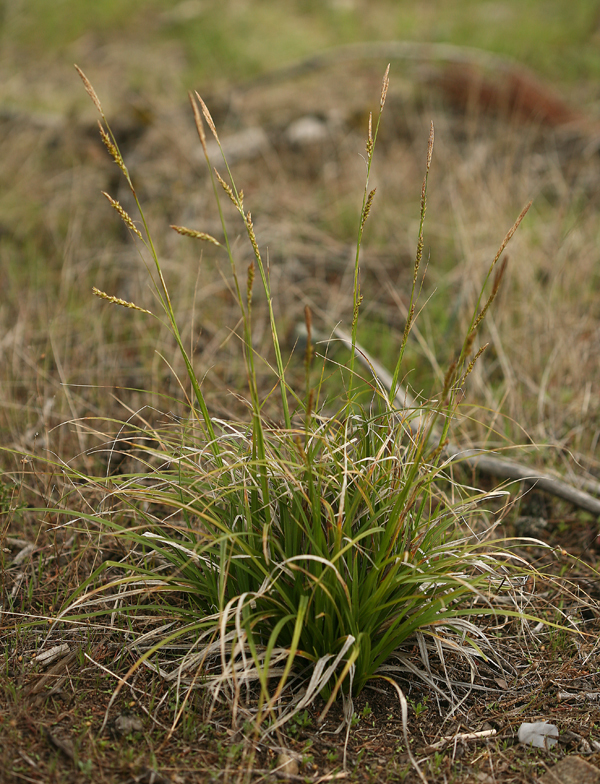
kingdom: Plantae
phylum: Tracheophyta
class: Liliopsida
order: Poales
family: Cyperaceae
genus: Carex
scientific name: Carex obispoensis
